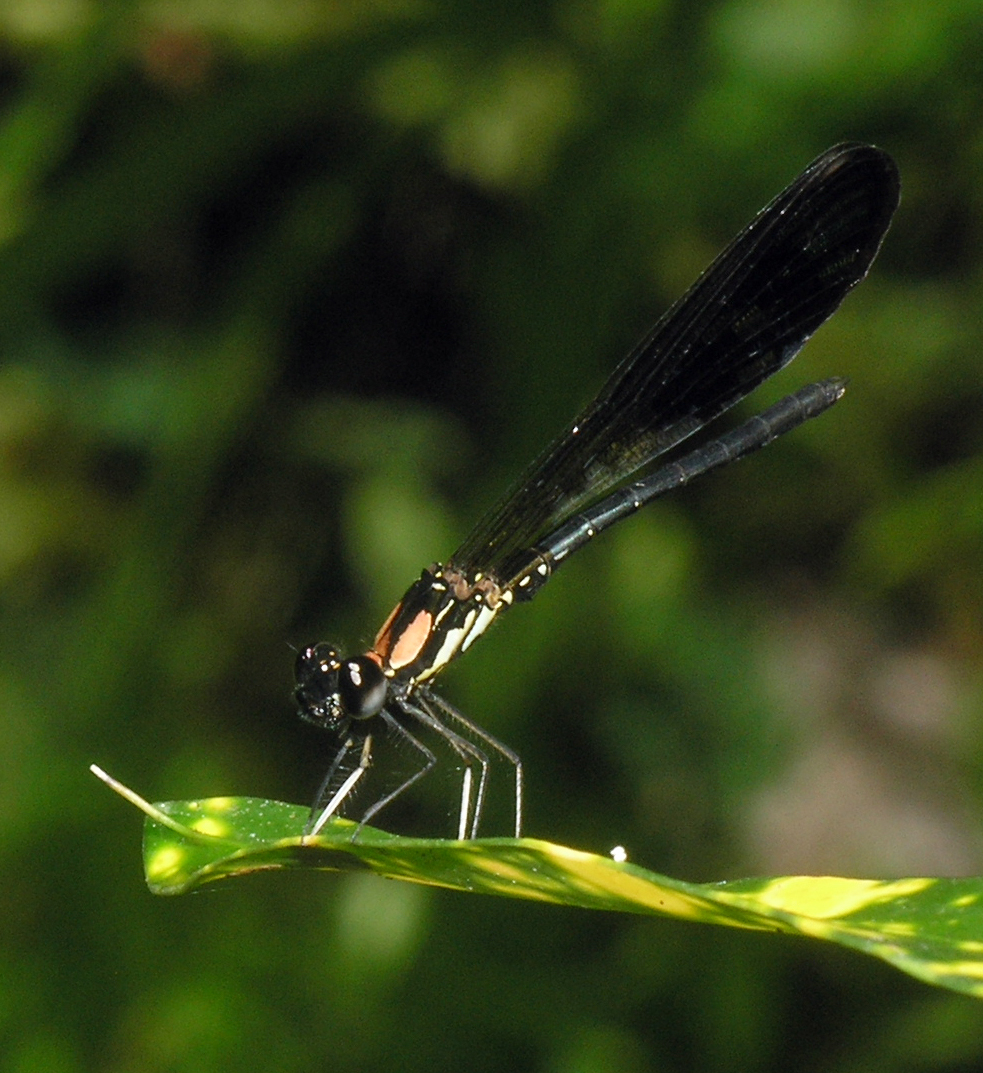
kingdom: Animalia
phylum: Arthropoda
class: Insecta
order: Odonata
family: Chlorocyphidae
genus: Heliocypha
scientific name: Heliocypha fenestrata
